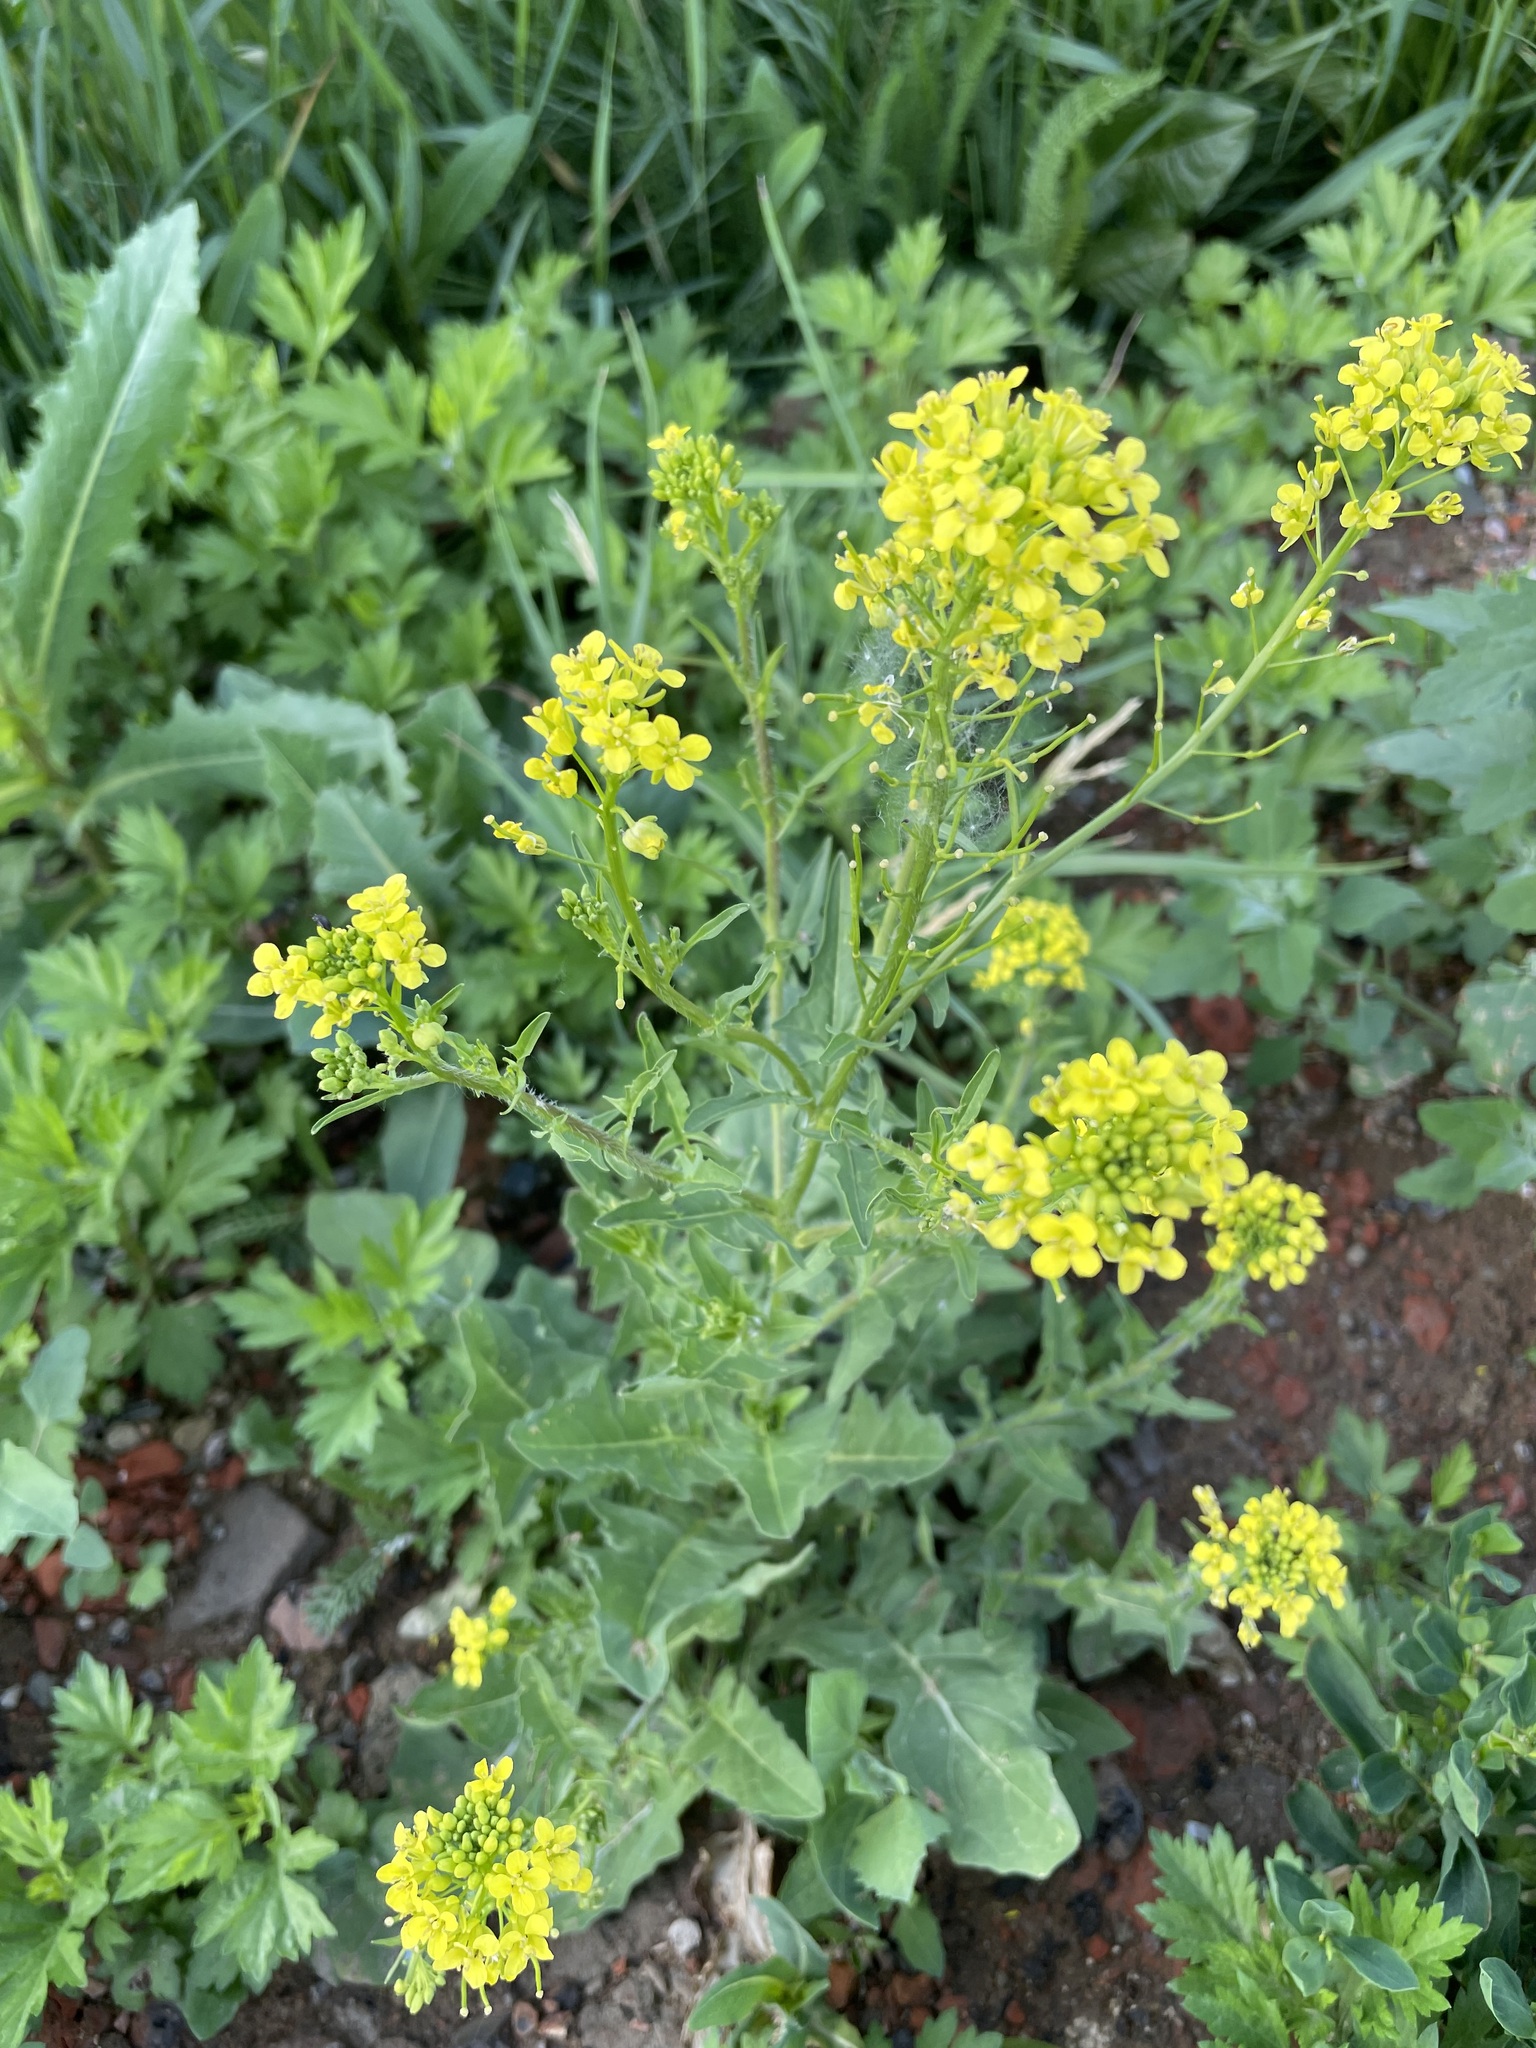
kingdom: Plantae
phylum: Tracheophyta
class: Magnoliopsida
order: Brassicales
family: Brassicaceae
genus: Sisymbrium
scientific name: Sisymbrium loeselii
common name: False london-rocket
